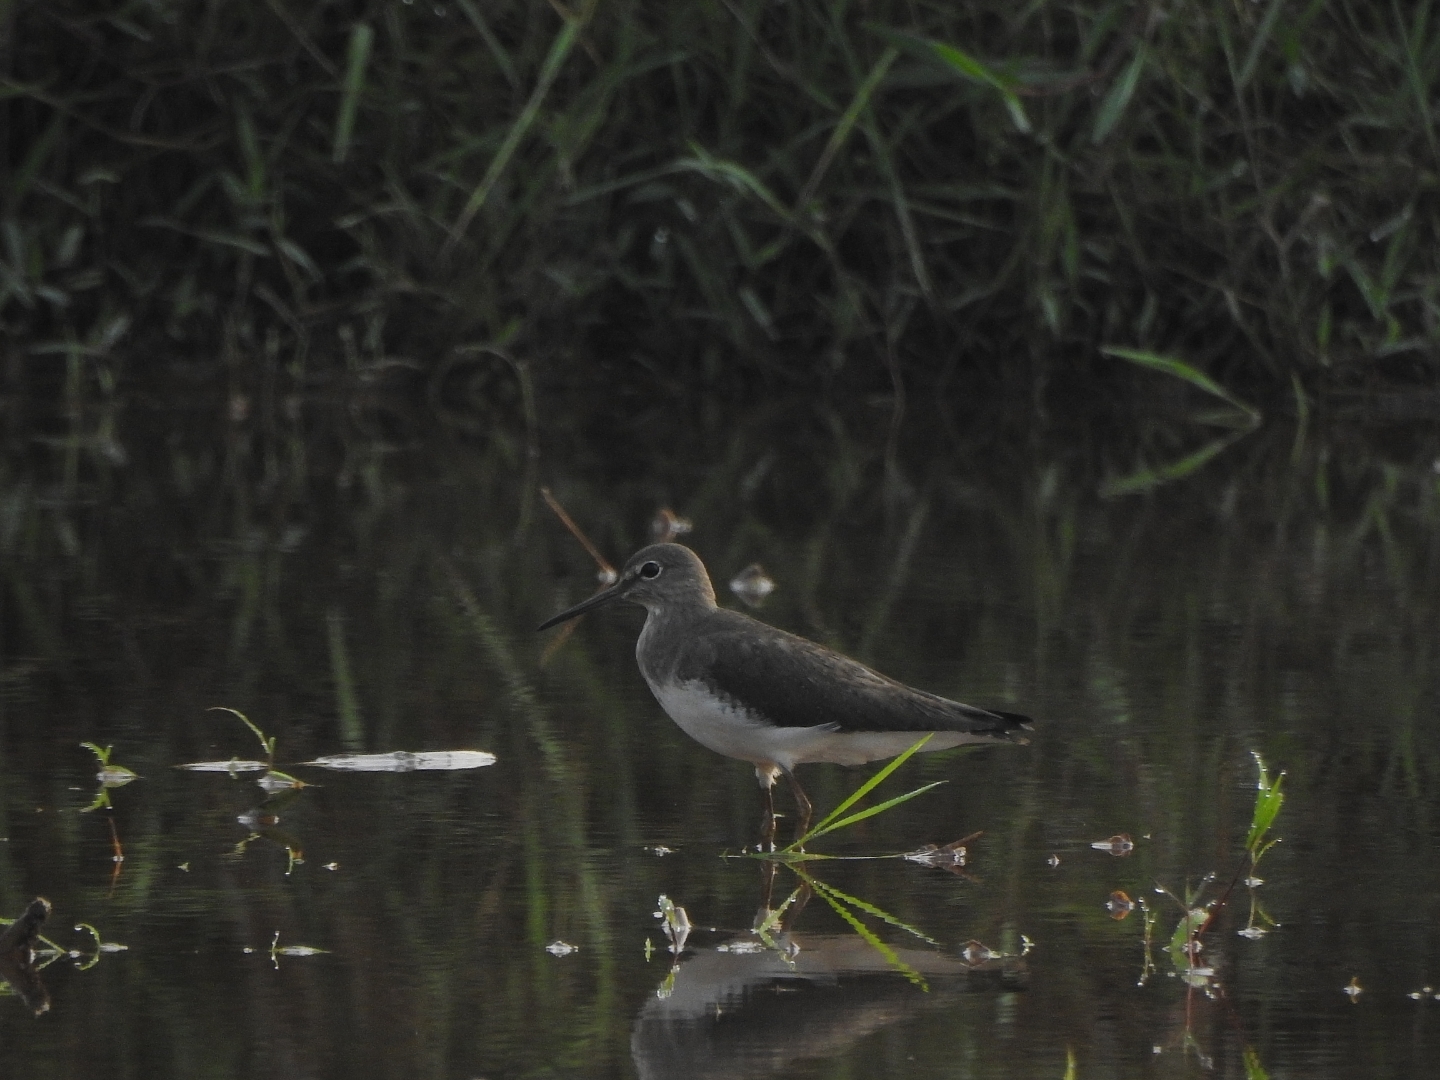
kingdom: Animalia
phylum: Chordata
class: Aves
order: Charadriiformes
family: Scolopacidae
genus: Tringa
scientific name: Tringa ochropus
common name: Green sandpiper
